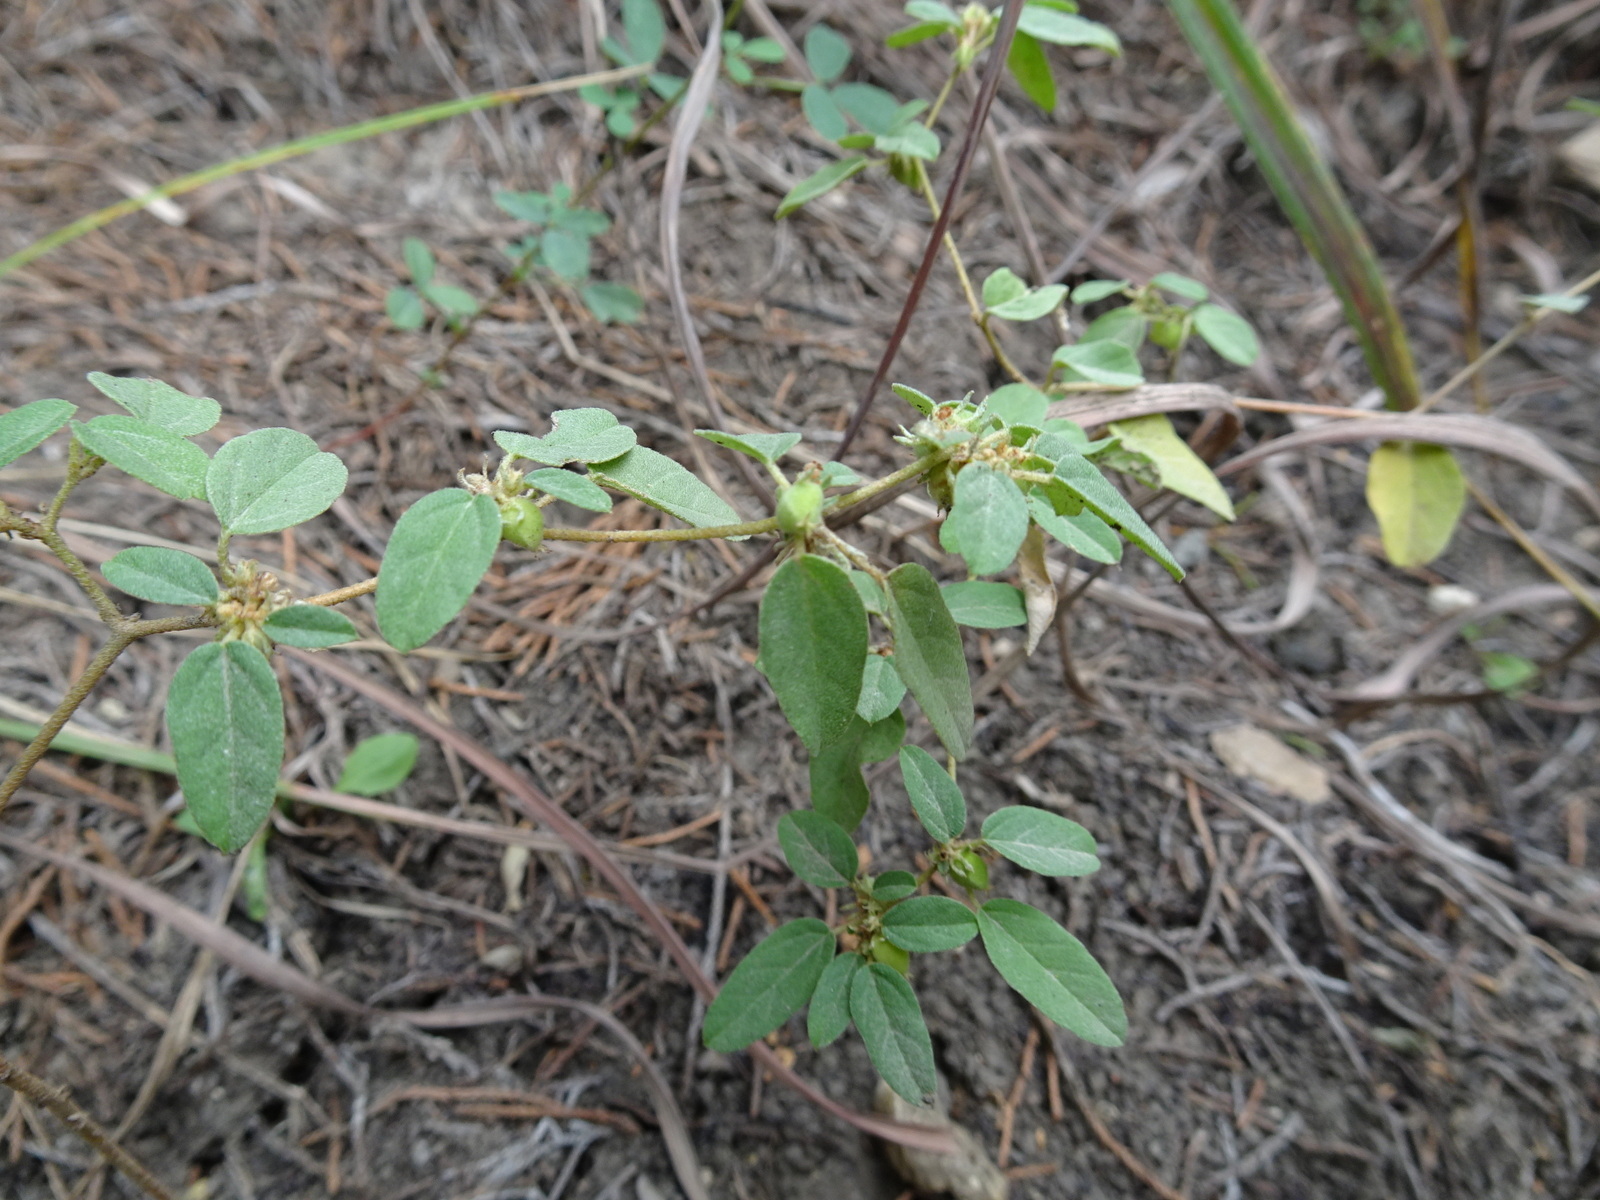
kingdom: Plantae
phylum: Tracheophyta
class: Magnoliopsida
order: Malpighiales
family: Euphorbiaceae
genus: Croton
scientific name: Croton monanthogynus
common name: One-seed croton
